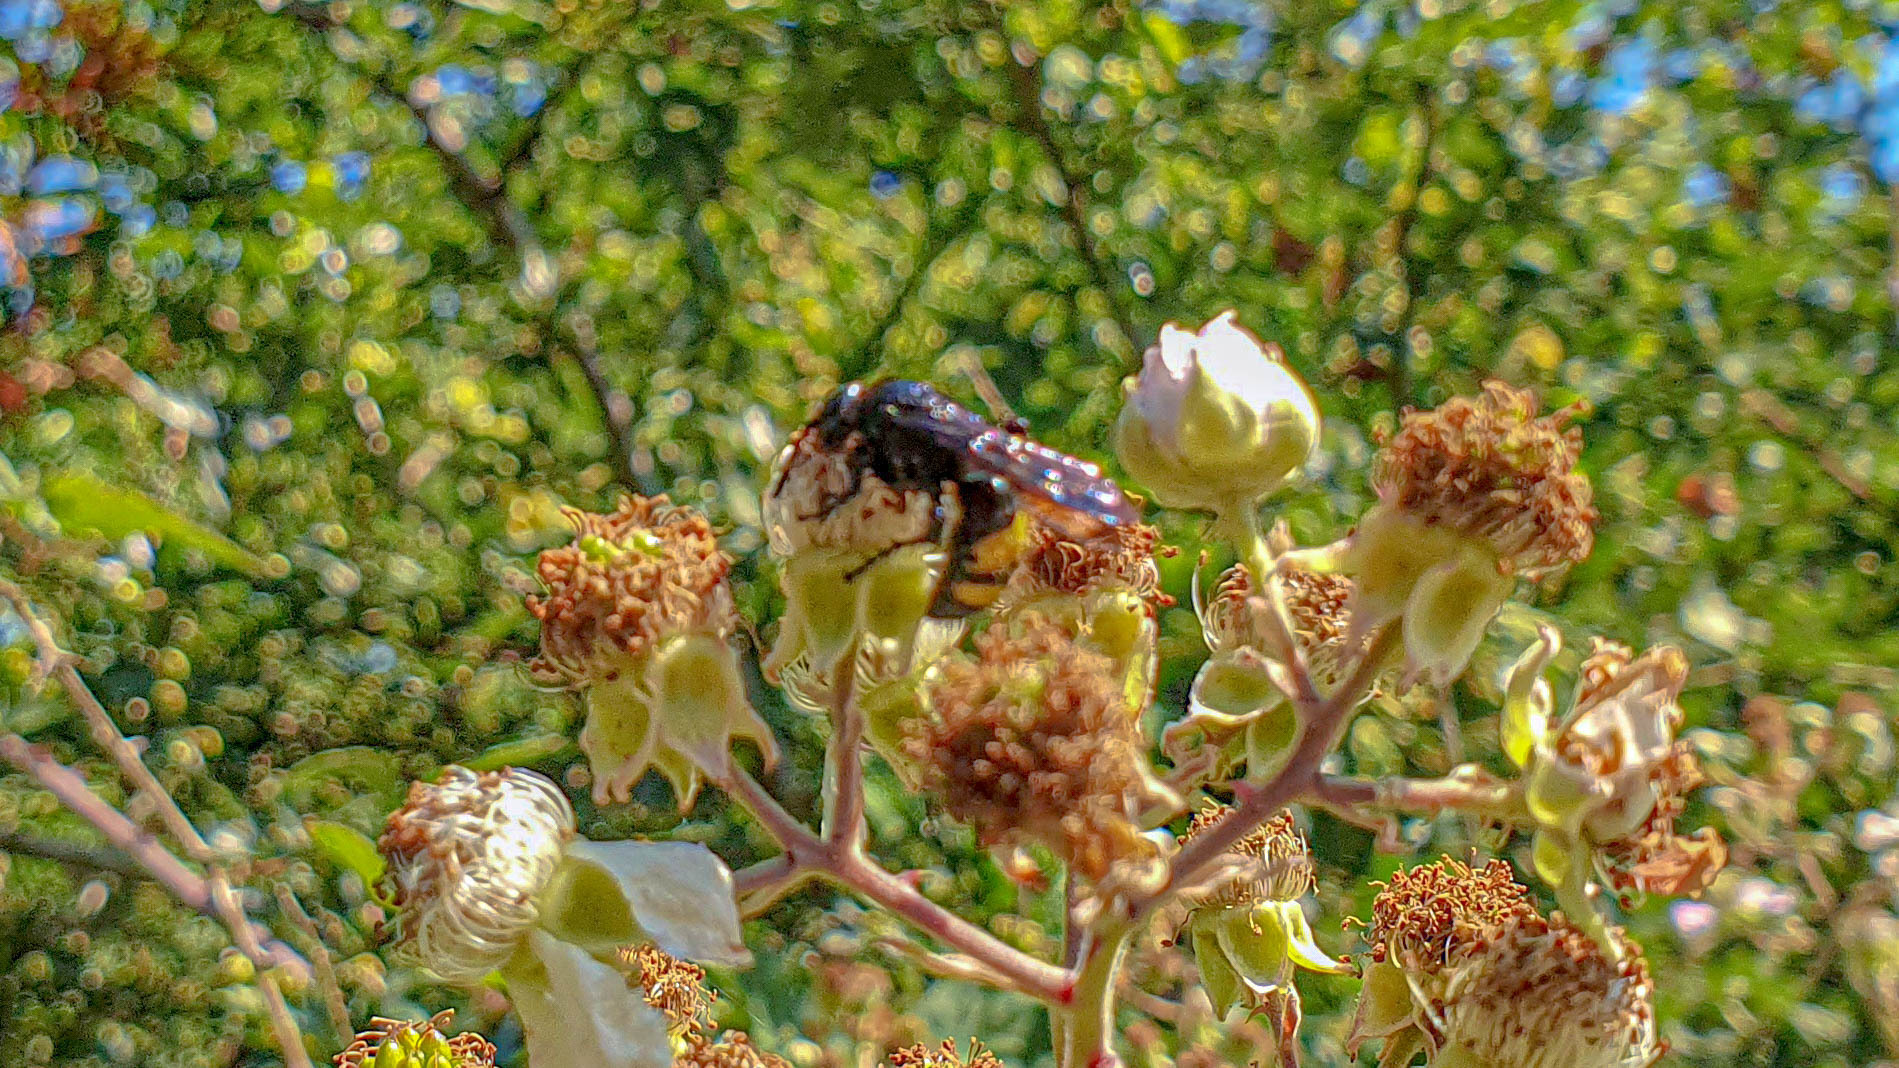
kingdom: Animalia
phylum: Arthropoda
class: Insecta
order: Hymenoptera
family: Scoliidae
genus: Scolia
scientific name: Scolia hirta
